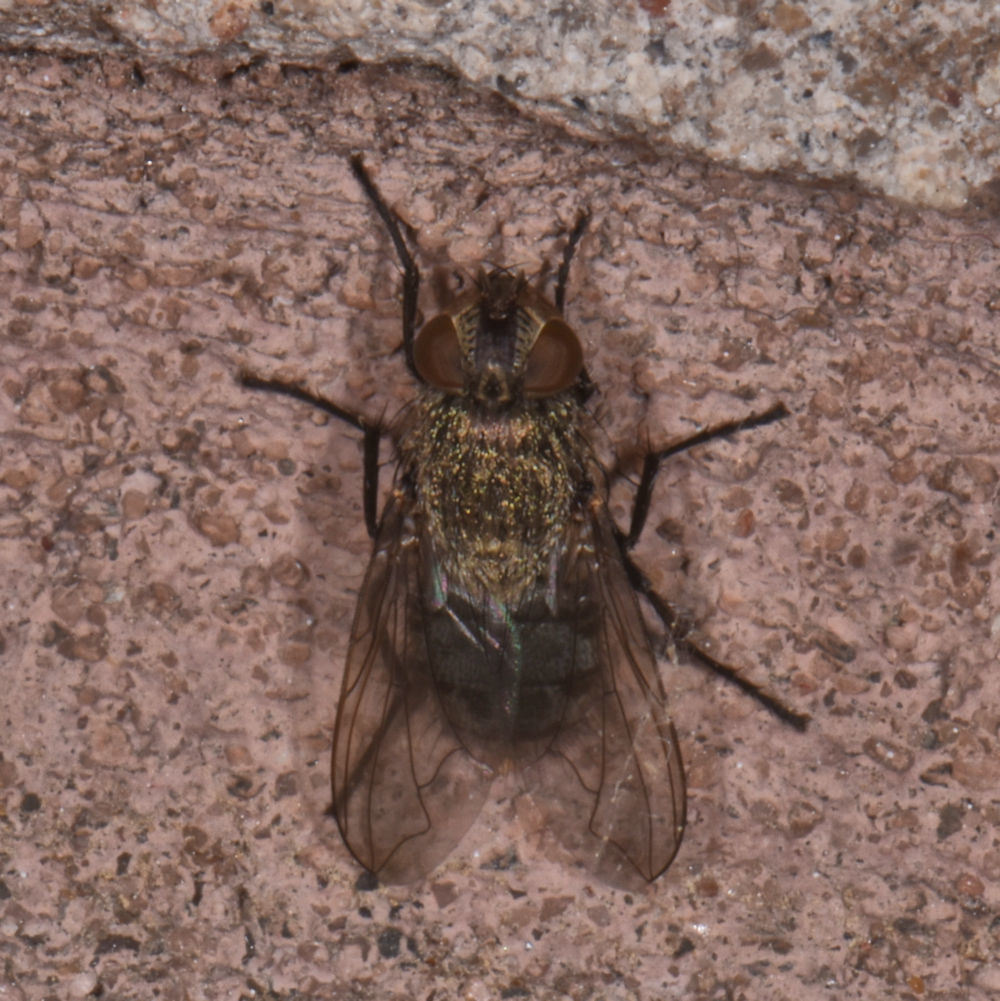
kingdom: Animalia
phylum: Arthropoda
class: Insecta
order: Diptera
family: Polleniidae
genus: Pollenia
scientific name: Pollenia
